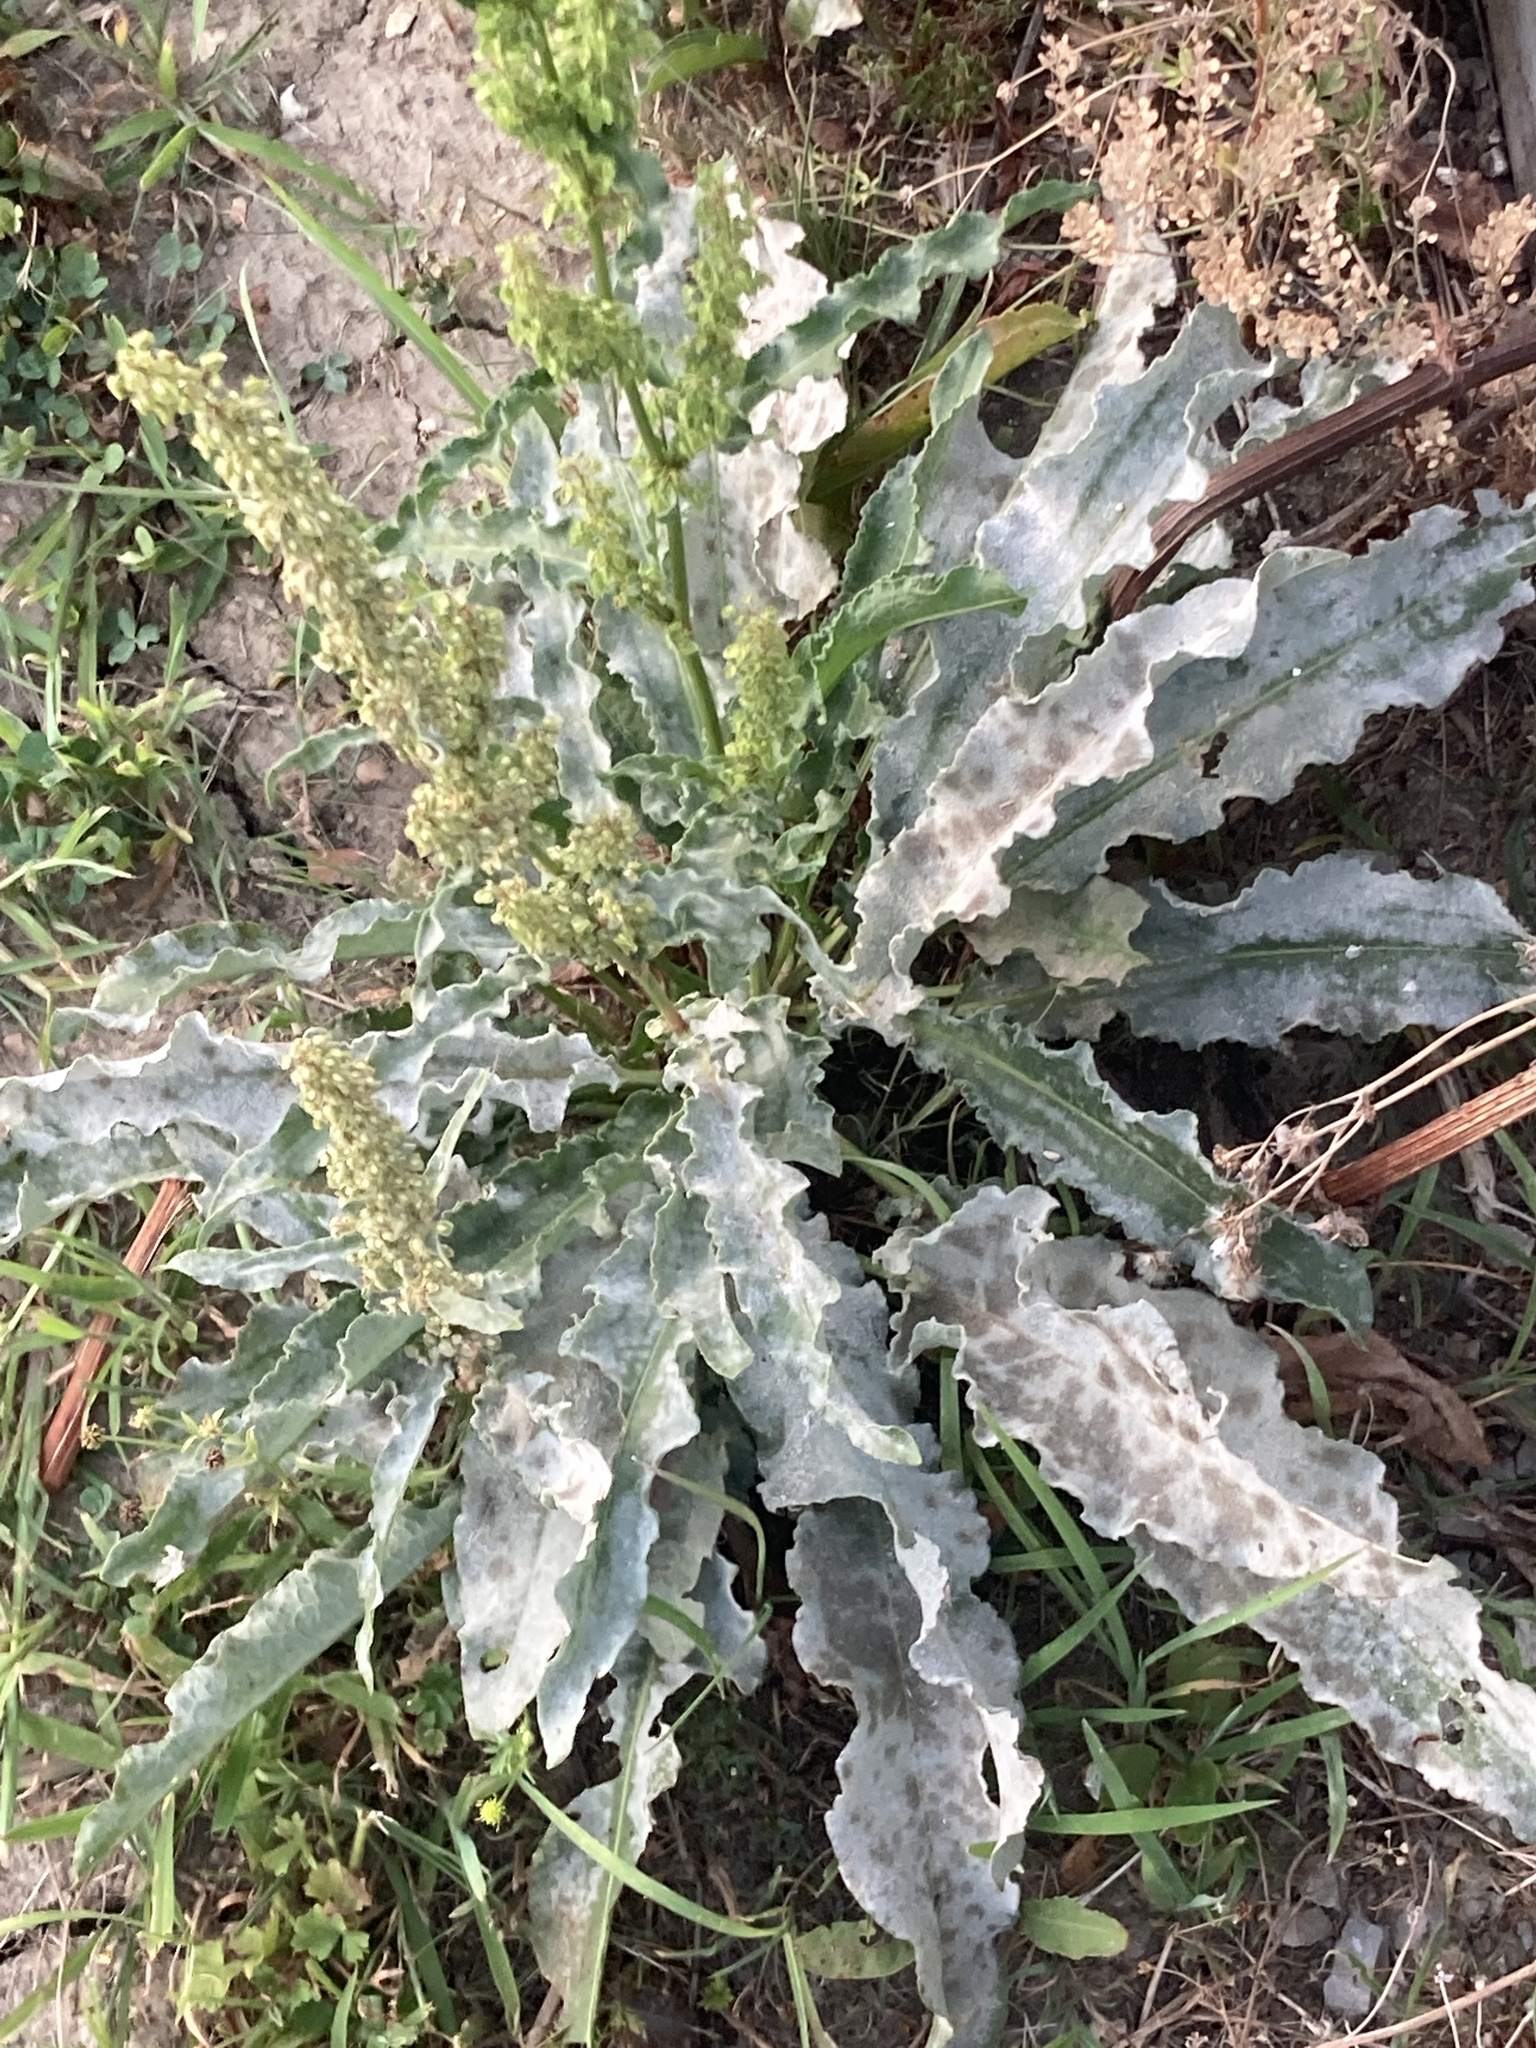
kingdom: Plantae
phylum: Tracheophyta
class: Magnoliopsida
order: Caryophyllales
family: Polygonaceae
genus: Rumex
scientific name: Rumex crispus
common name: Curled dock
